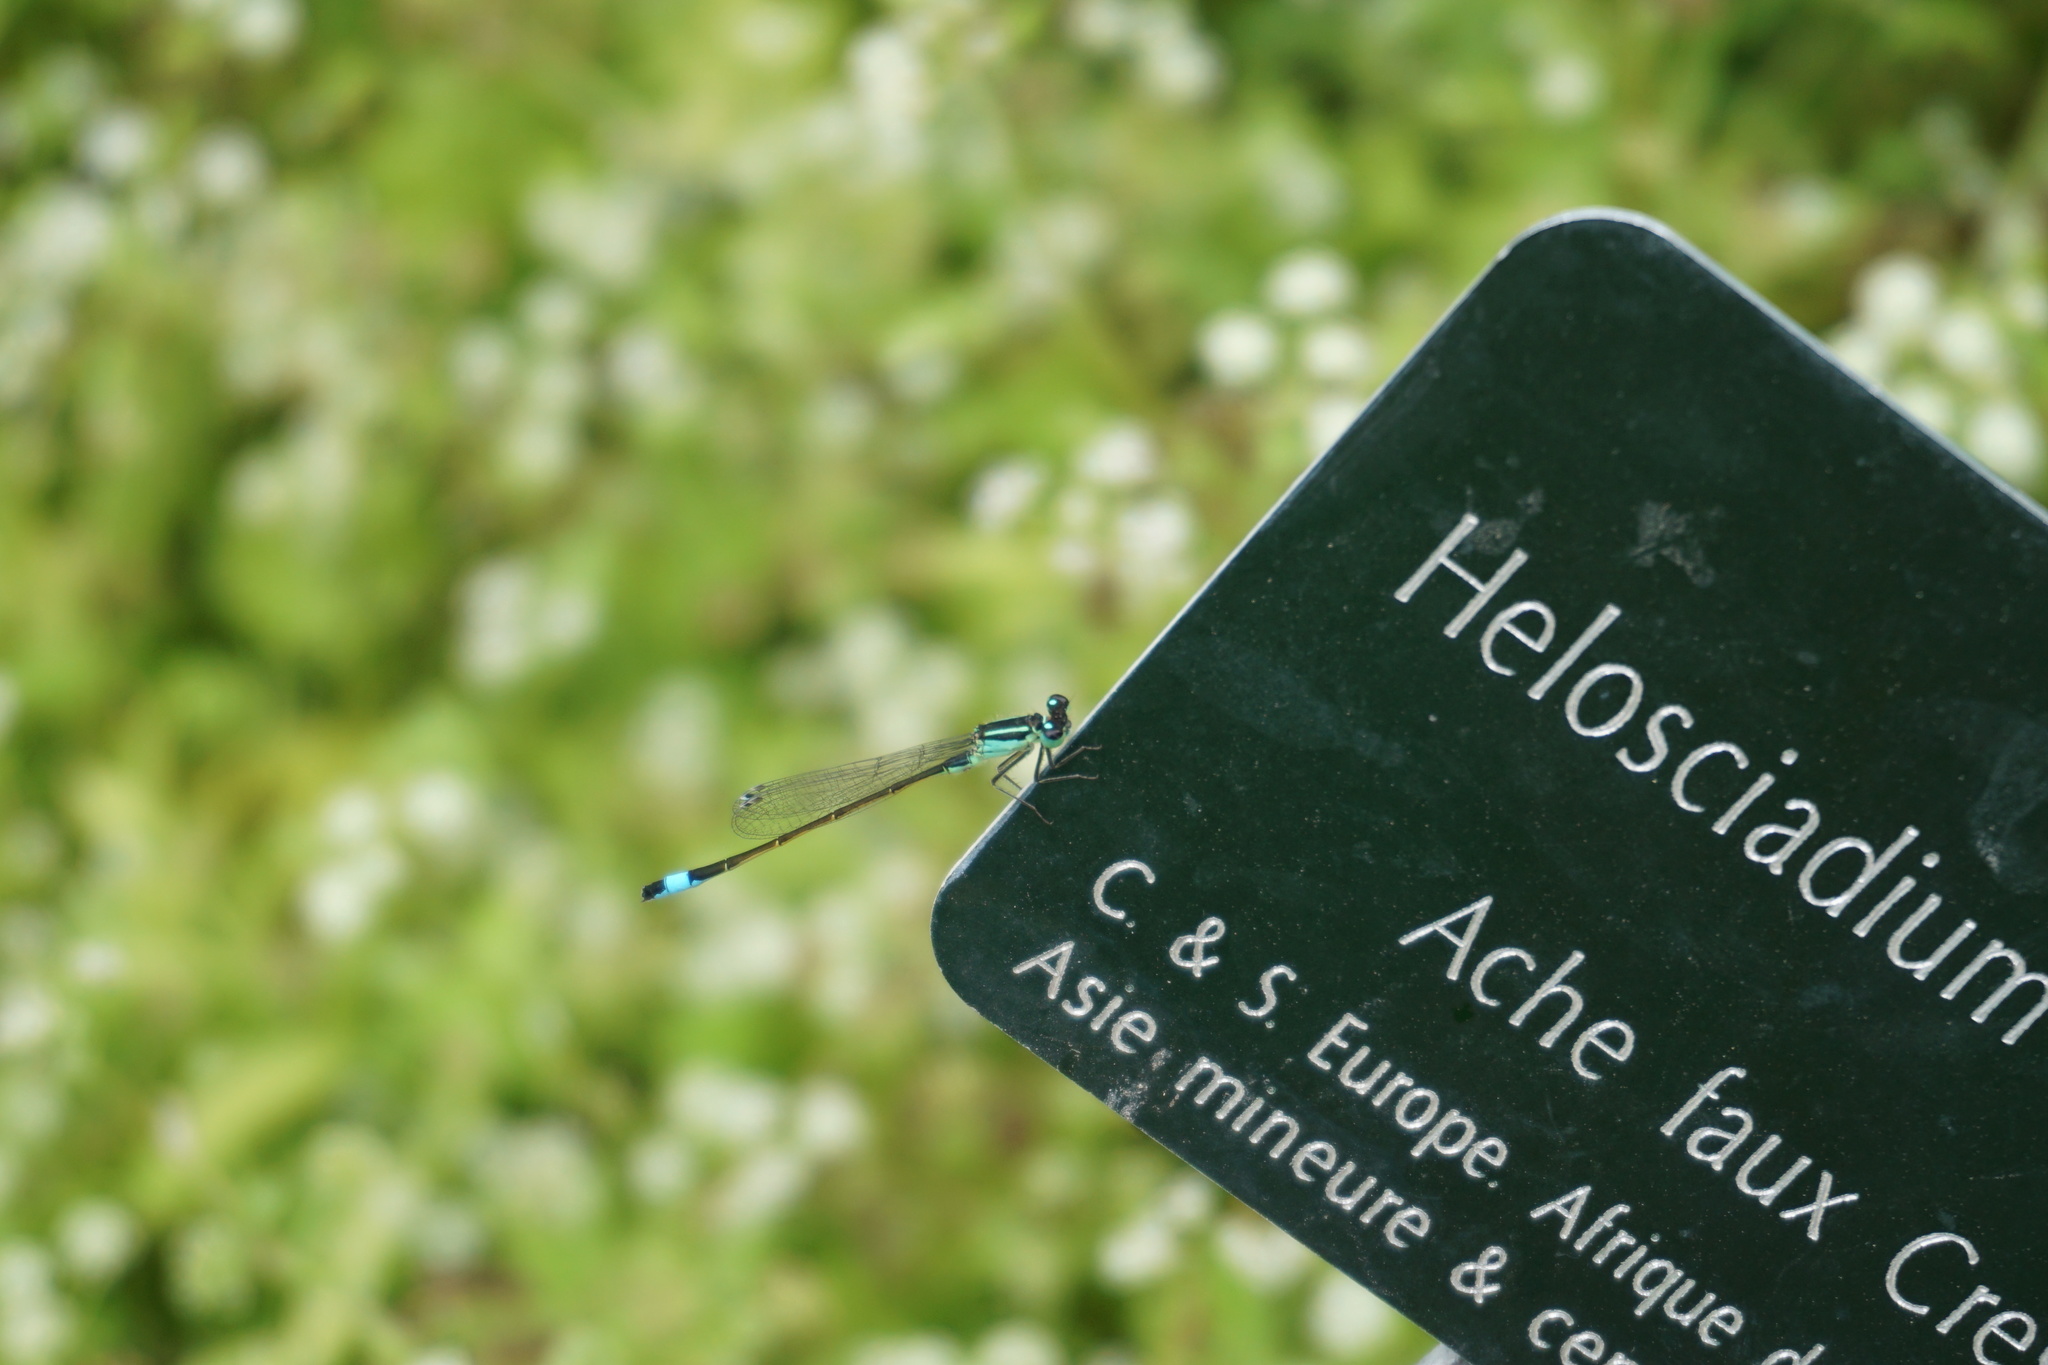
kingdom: Animalia
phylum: Arthropoda
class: Insecta
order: Odonata
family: Coenagrionidae
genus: Ischnura
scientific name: Ischnura elegans
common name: Blue-tailed damselfly
